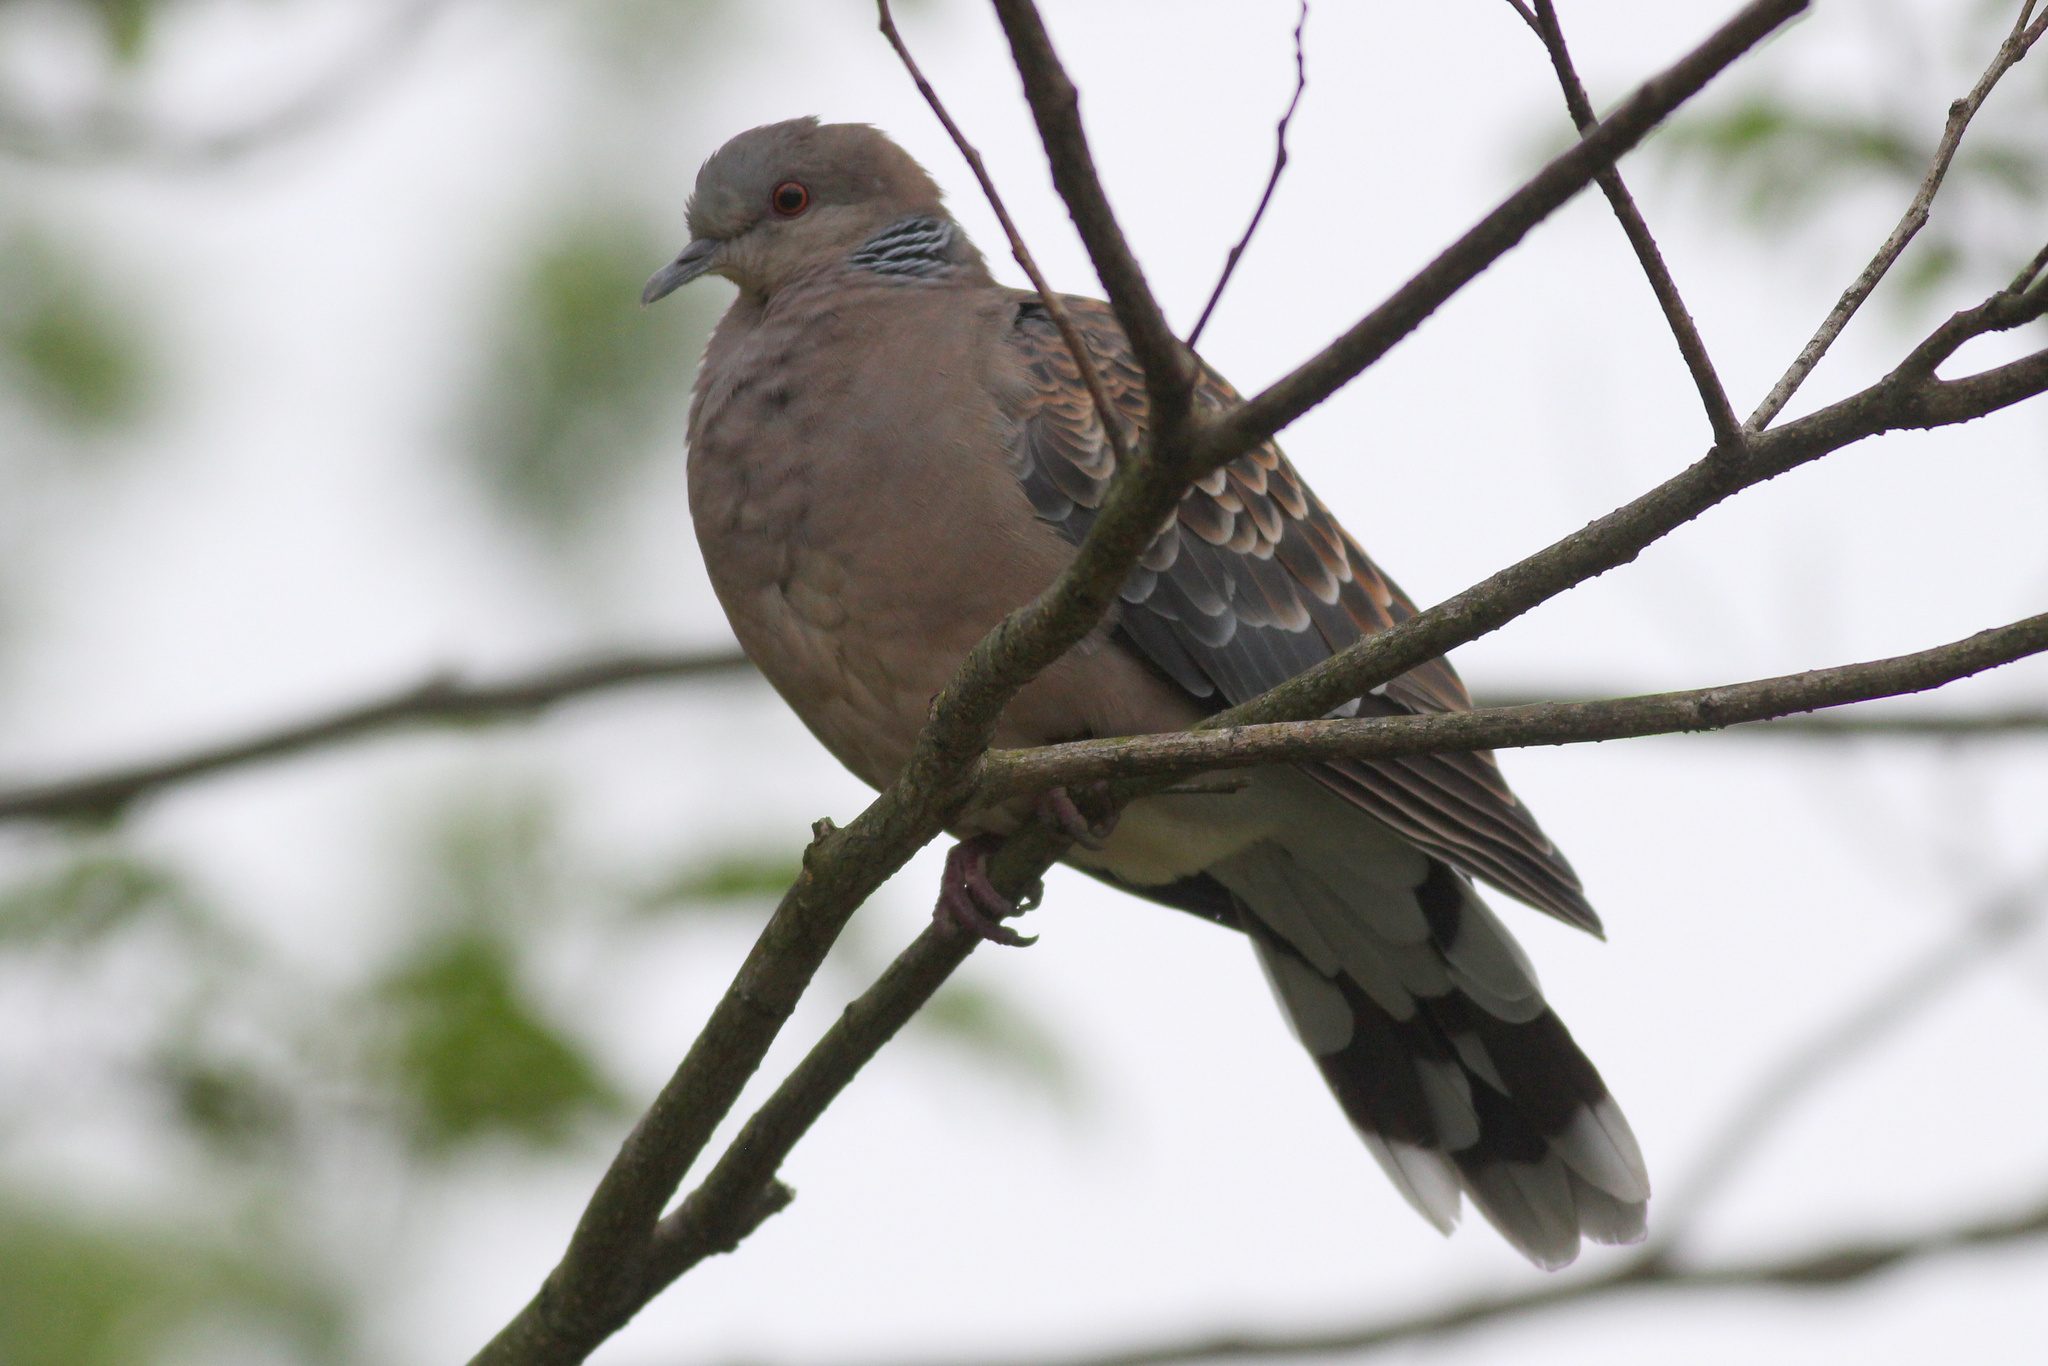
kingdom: Animalia
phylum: Chordata
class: Aves
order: Columbiformes
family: Columbidae
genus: Streptopelia
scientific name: Streptopelia orientalis
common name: Oriental turtle dove
